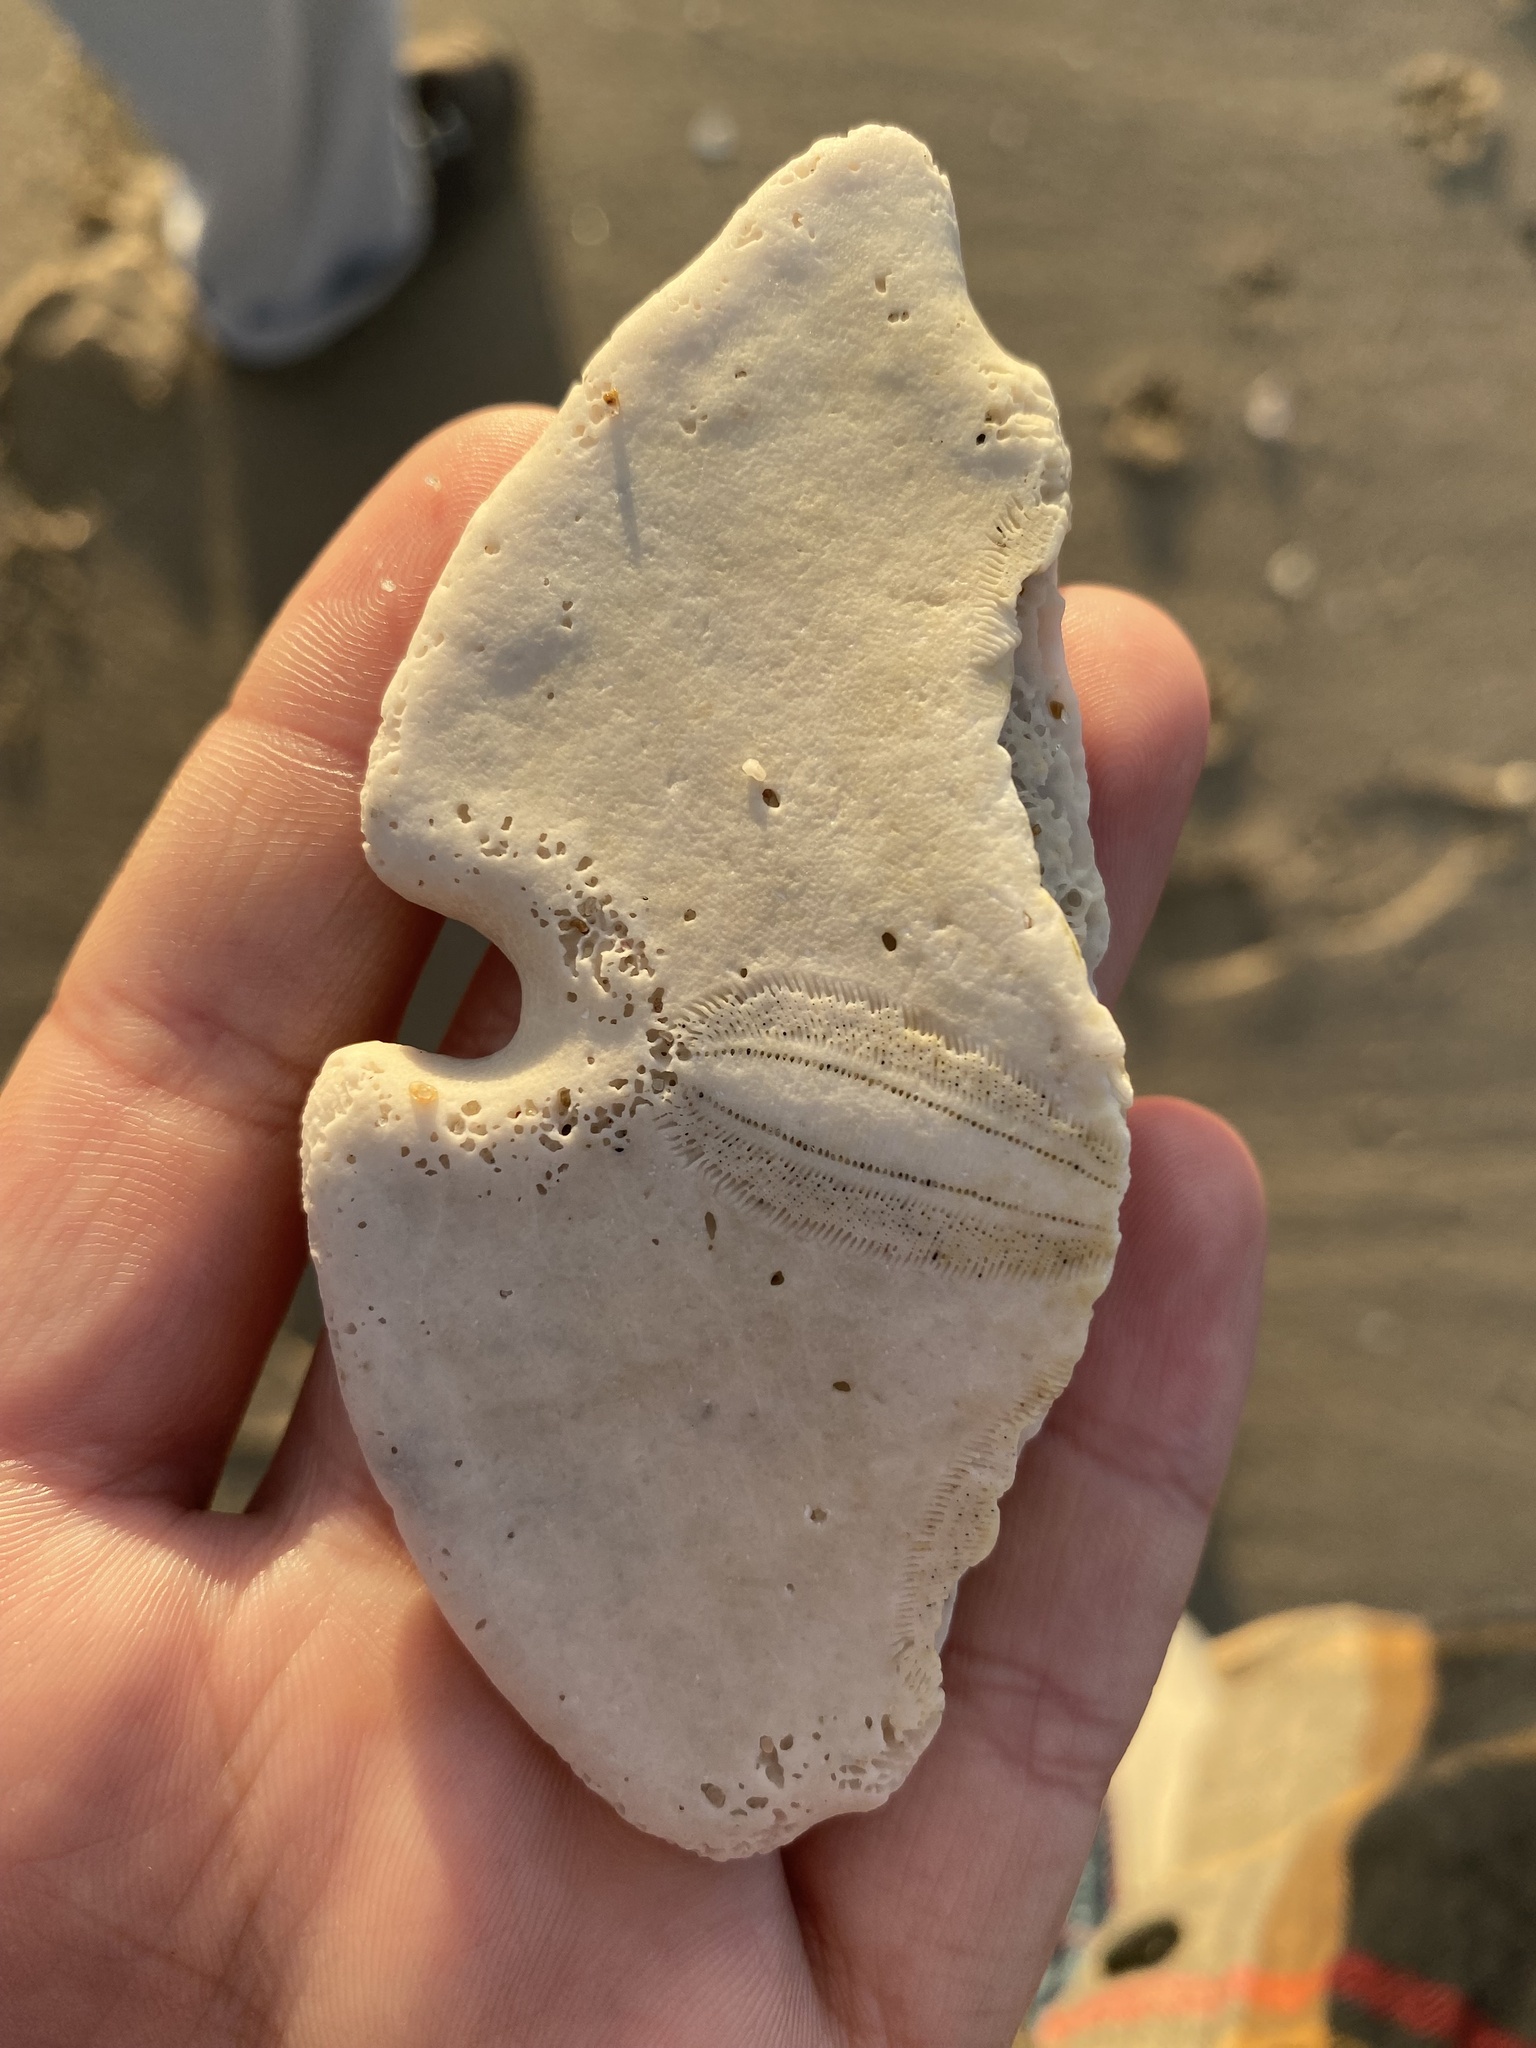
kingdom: Animalia
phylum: Echinodermata
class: Echinoidea
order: Echinolampadacea
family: Mellitidae
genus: Encope
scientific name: Encope grandis
